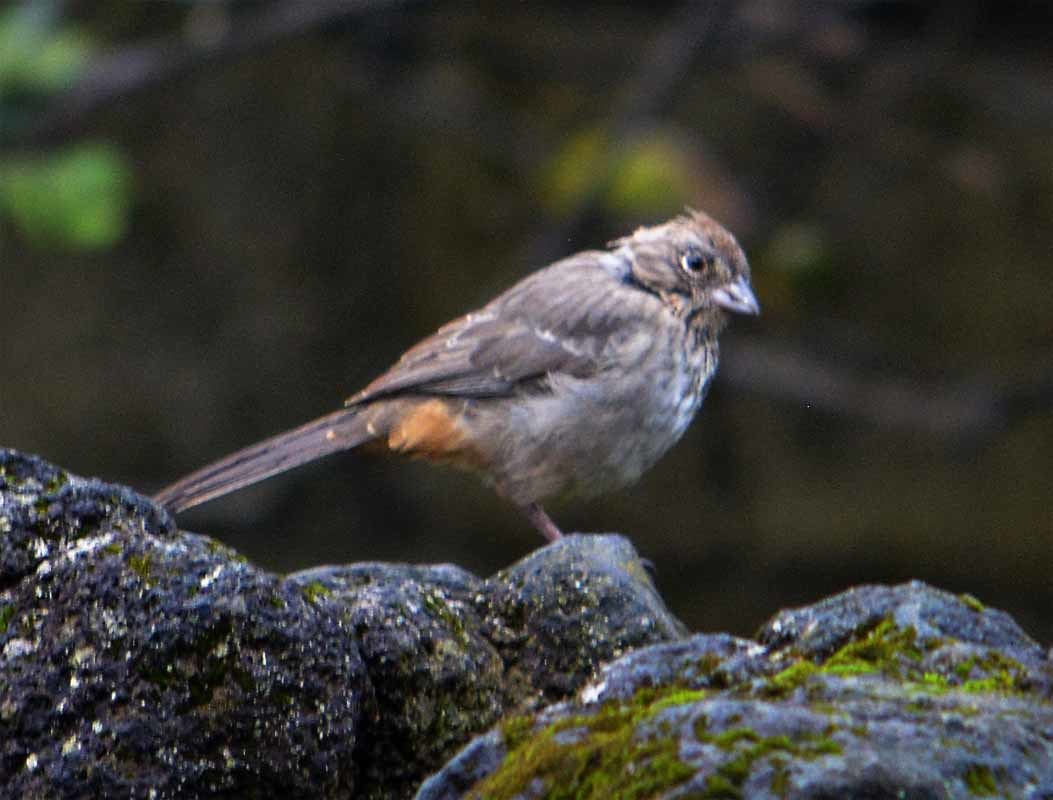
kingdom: Animalia
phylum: Chordata
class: Aves
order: Passeriformes
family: Passerellidae
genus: Melozone
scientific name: Melozone fusca
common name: Canyon towhee
